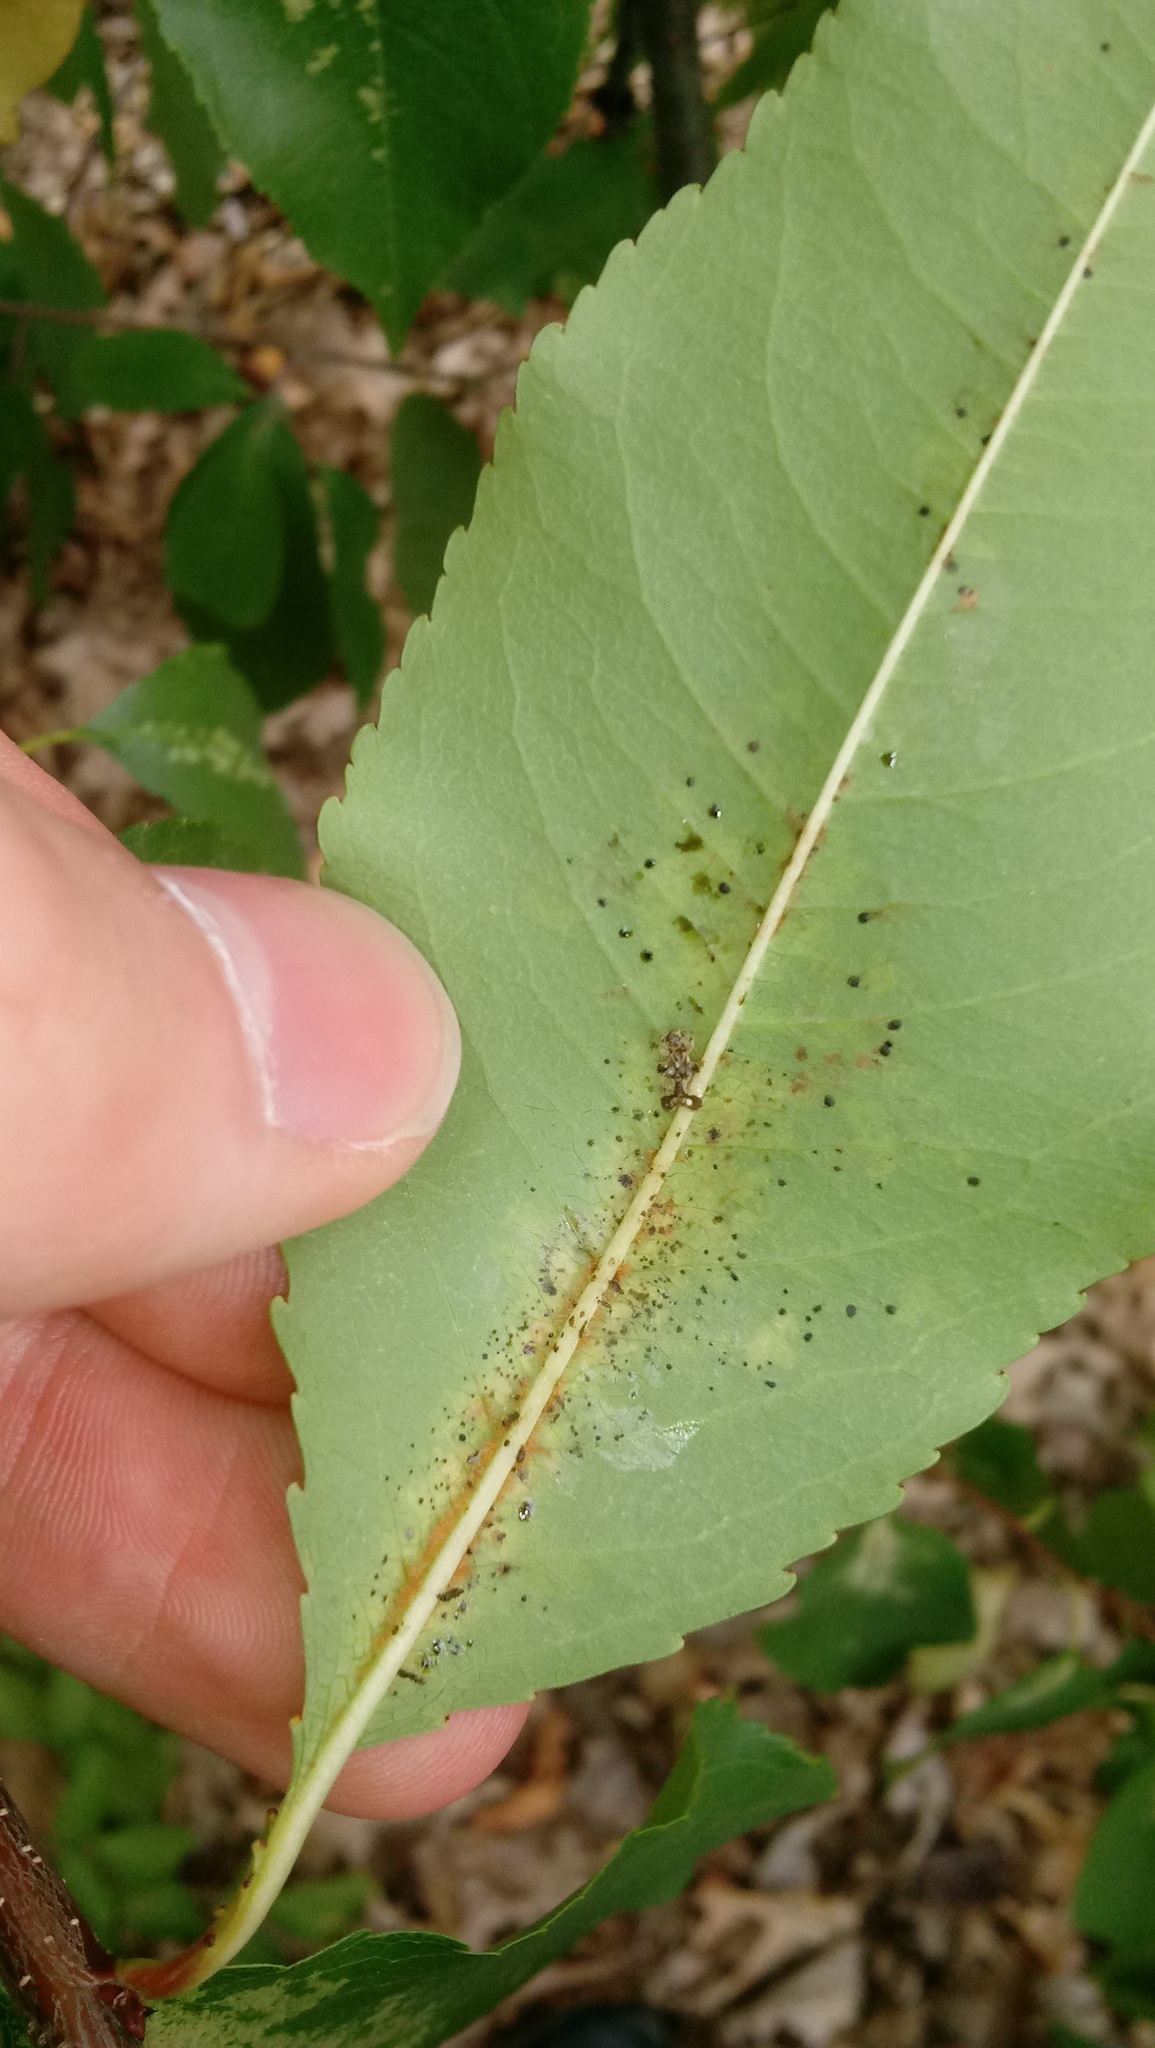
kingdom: Plantae
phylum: Tracheophyta
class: Magnoliopsida
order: Rosales
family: Rosaceae
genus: Prunus
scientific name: Prunus serotina
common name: Black cherry
